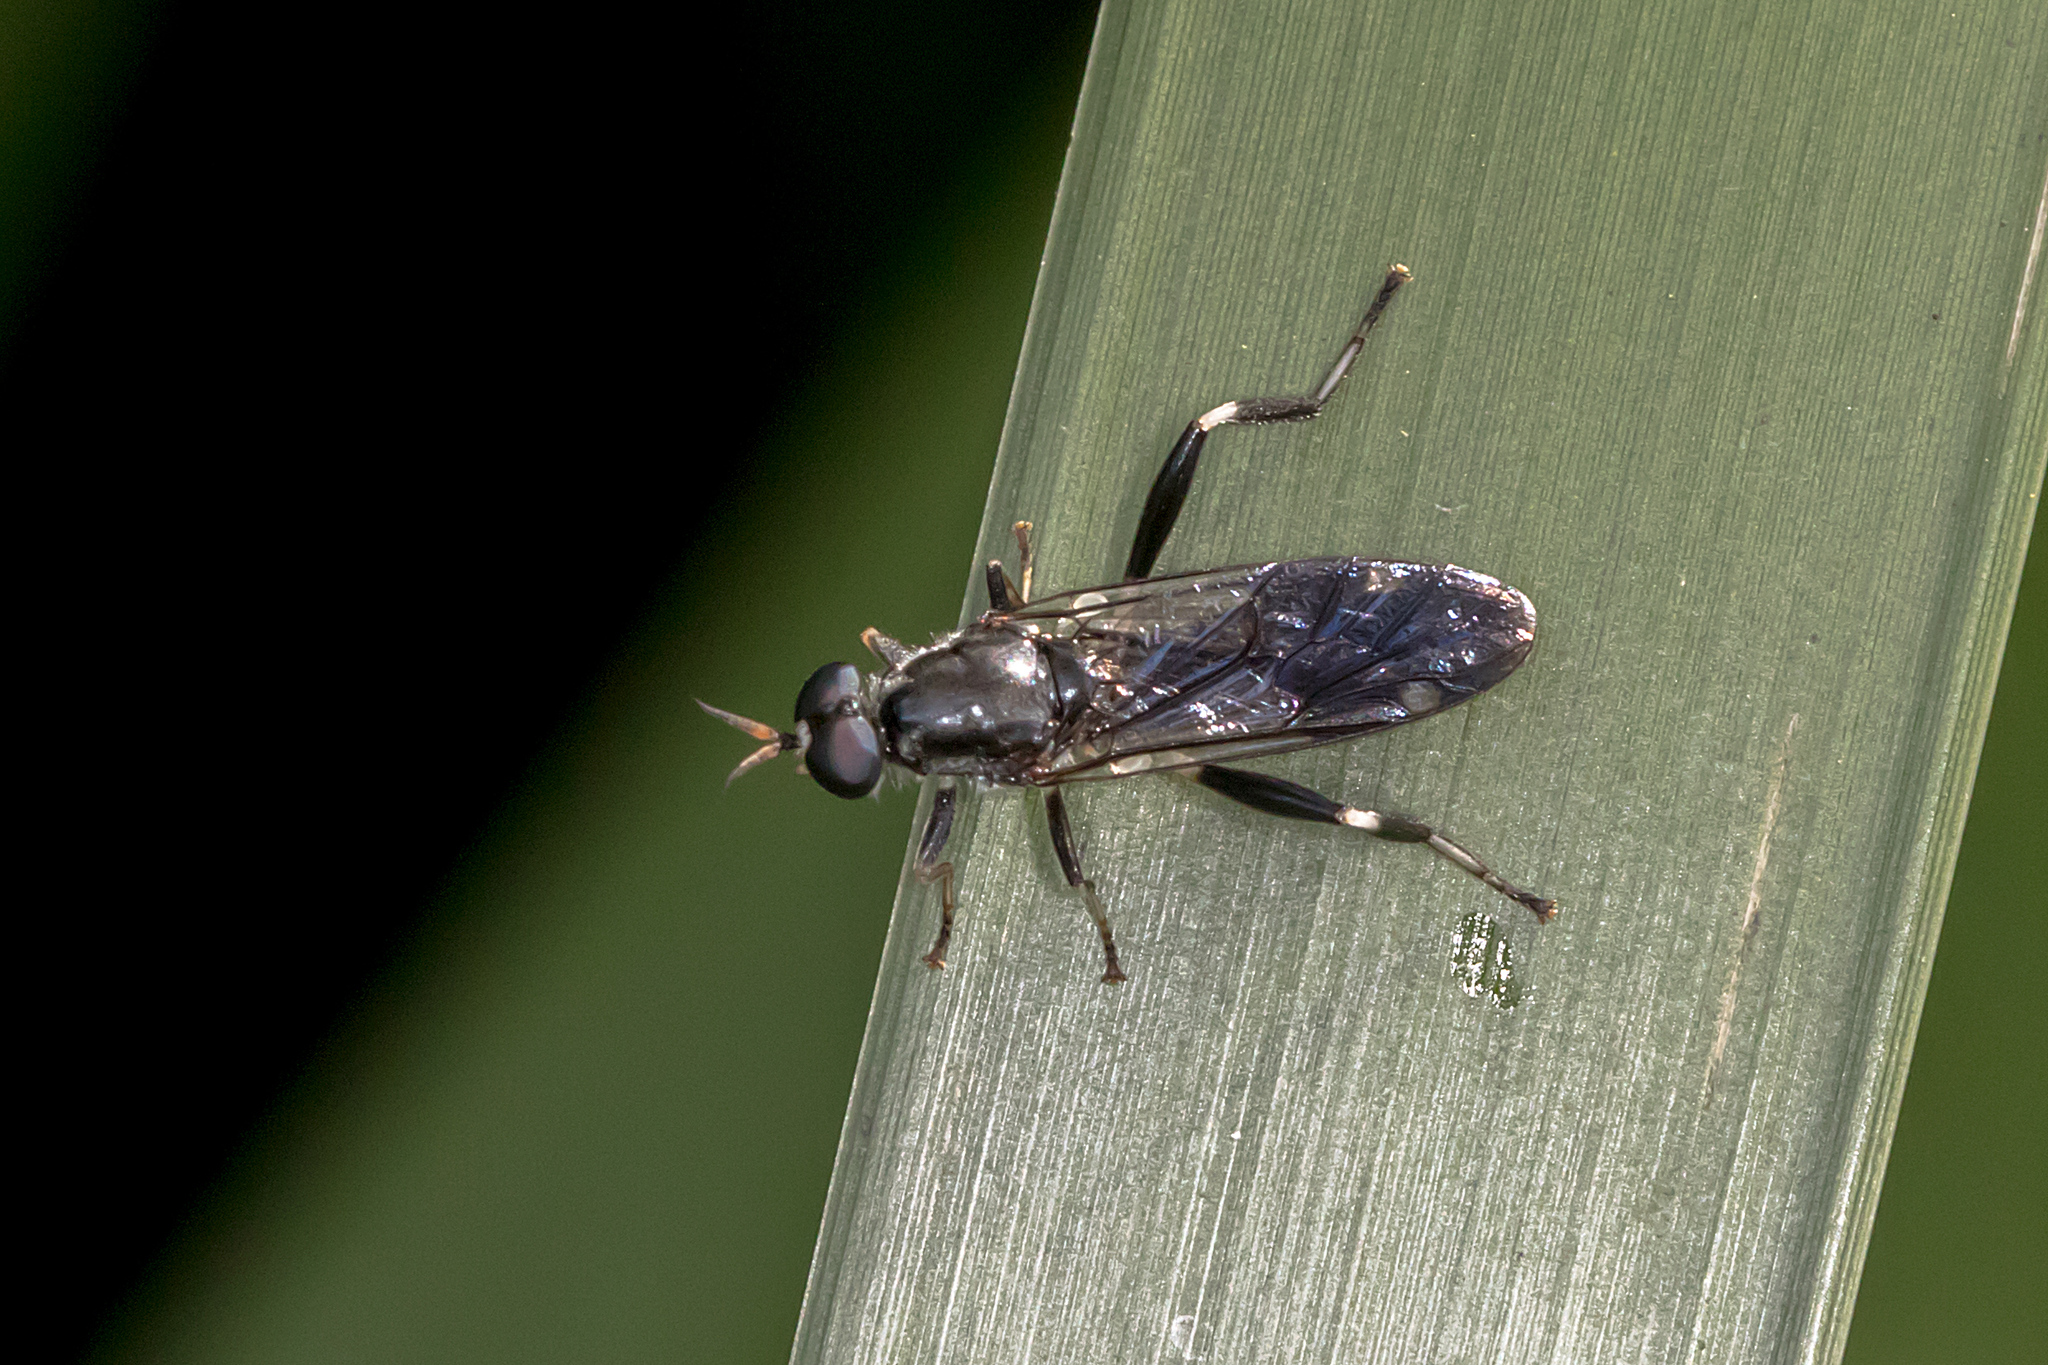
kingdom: Animalia
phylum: Arthropoda
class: Insecta
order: Diptera
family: Stratiomyidae
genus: Exaireta
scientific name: Exaireta spinigera
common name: Blue soldier fly
